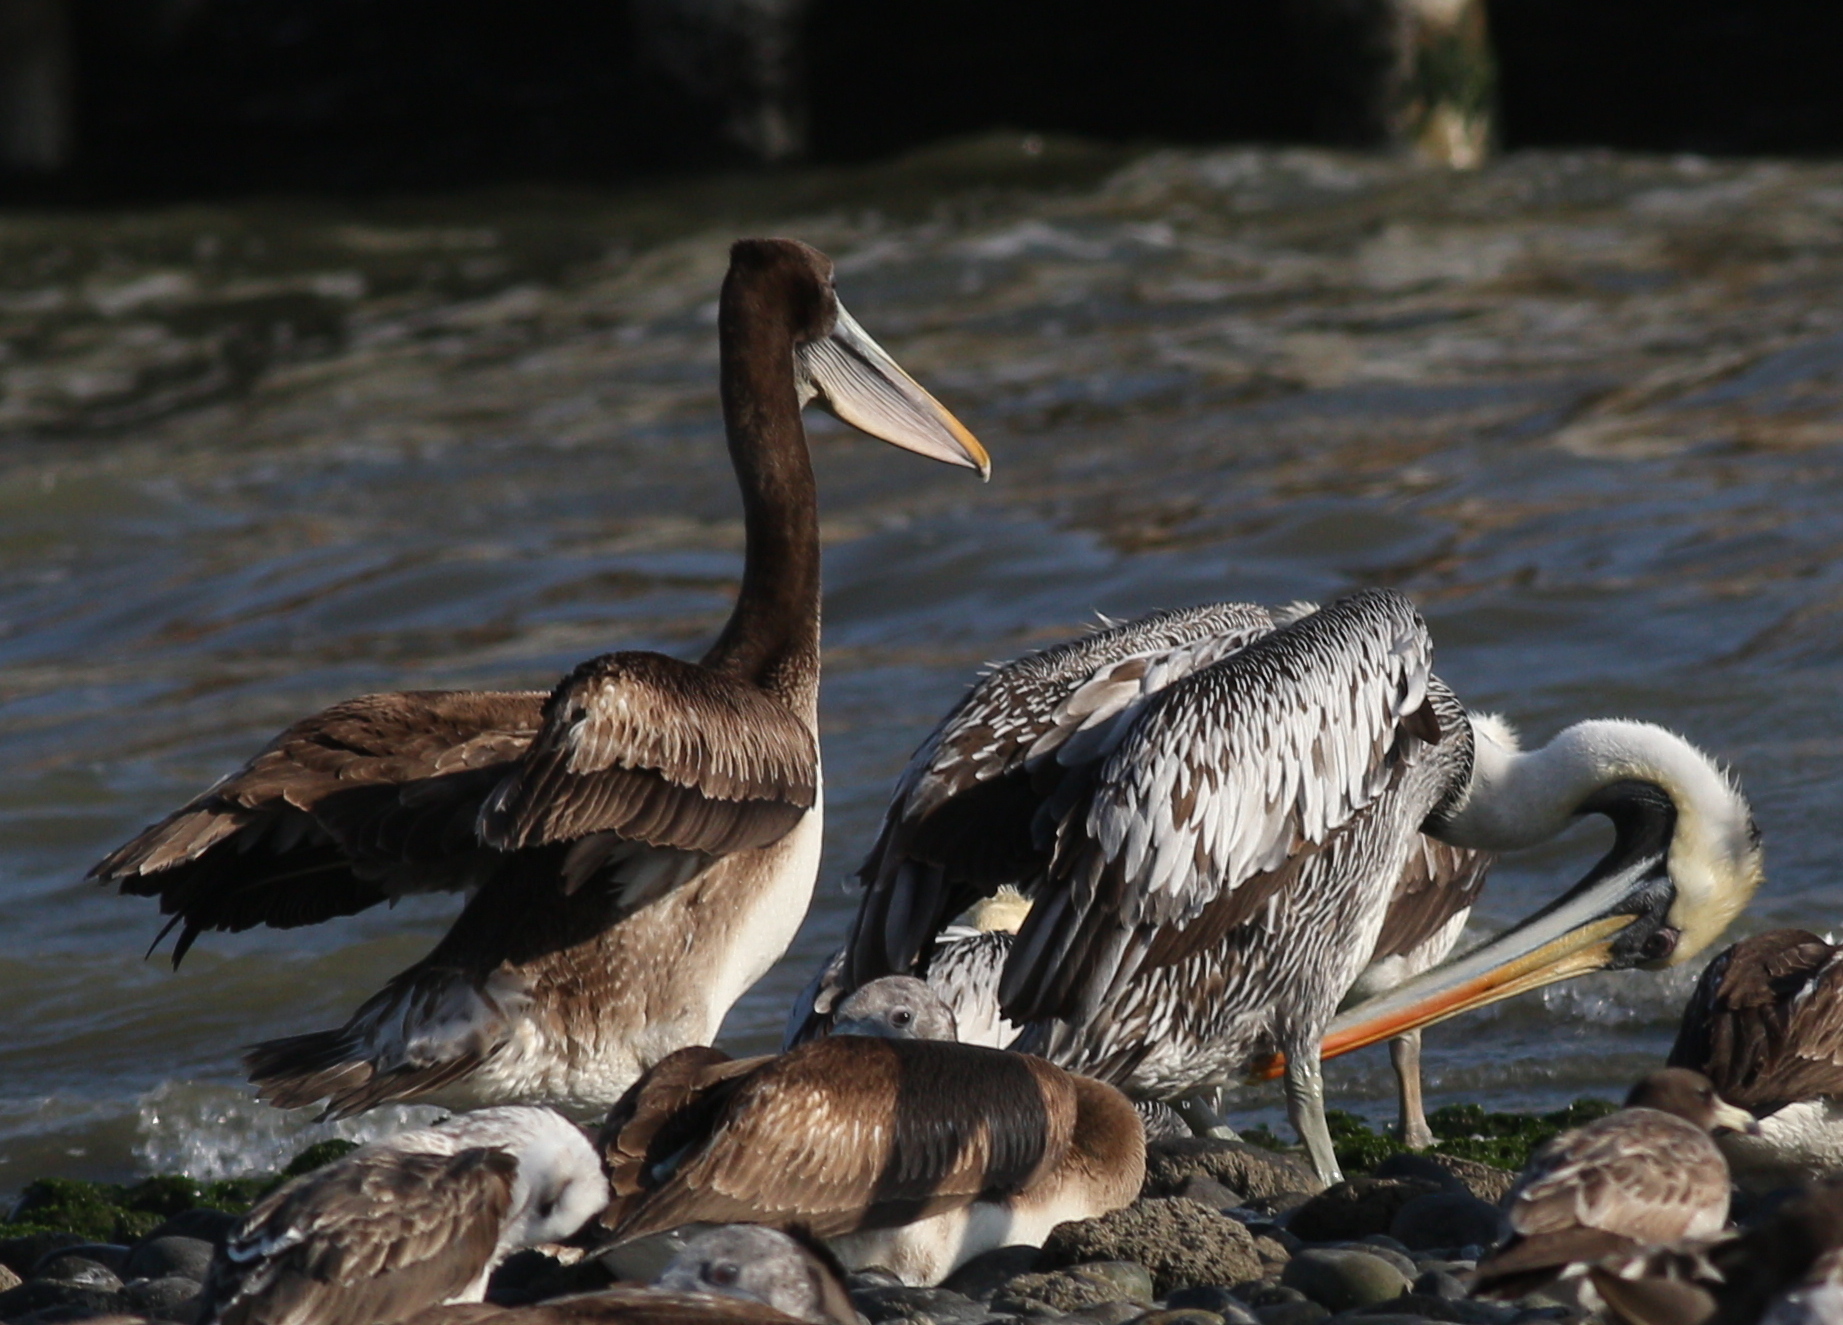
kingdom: Animalia
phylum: Chordata
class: Aves
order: Pelecaniformes
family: Pelecanidae
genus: Pelecanus
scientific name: Pelecanus thagus
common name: Peruvian pelican
